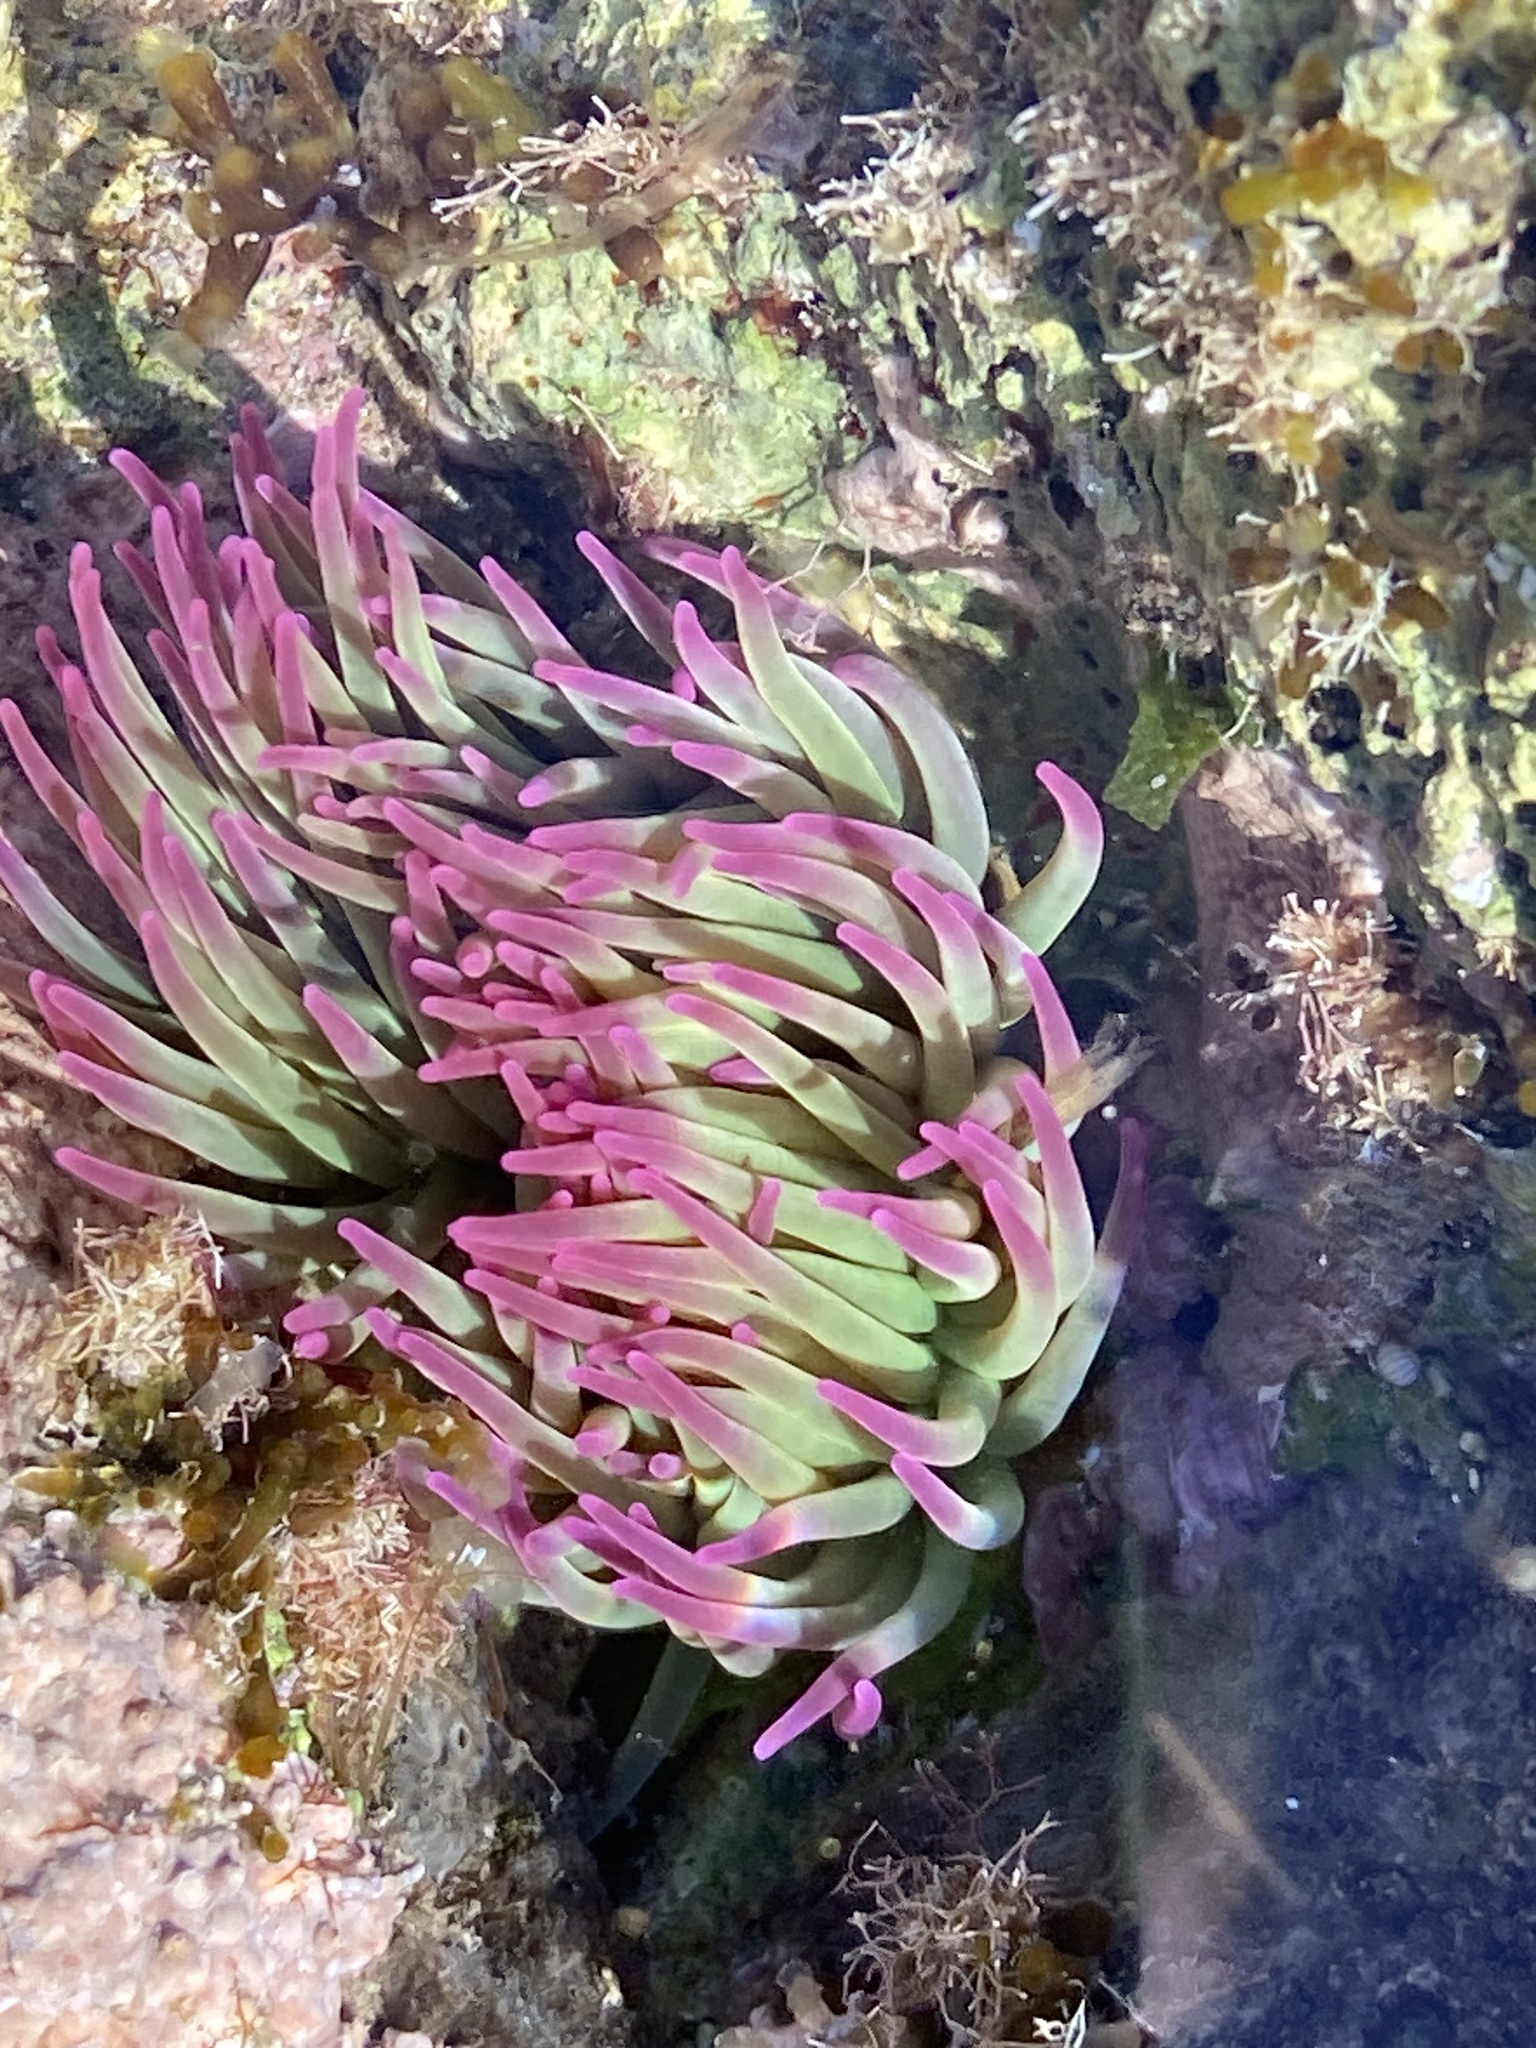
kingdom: Animalia
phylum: Cnidaria
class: Anthozoa
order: Actiniaria
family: Actiniidae
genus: Anemonia
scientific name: Anemonia viridis
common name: Snakelocks anemone
